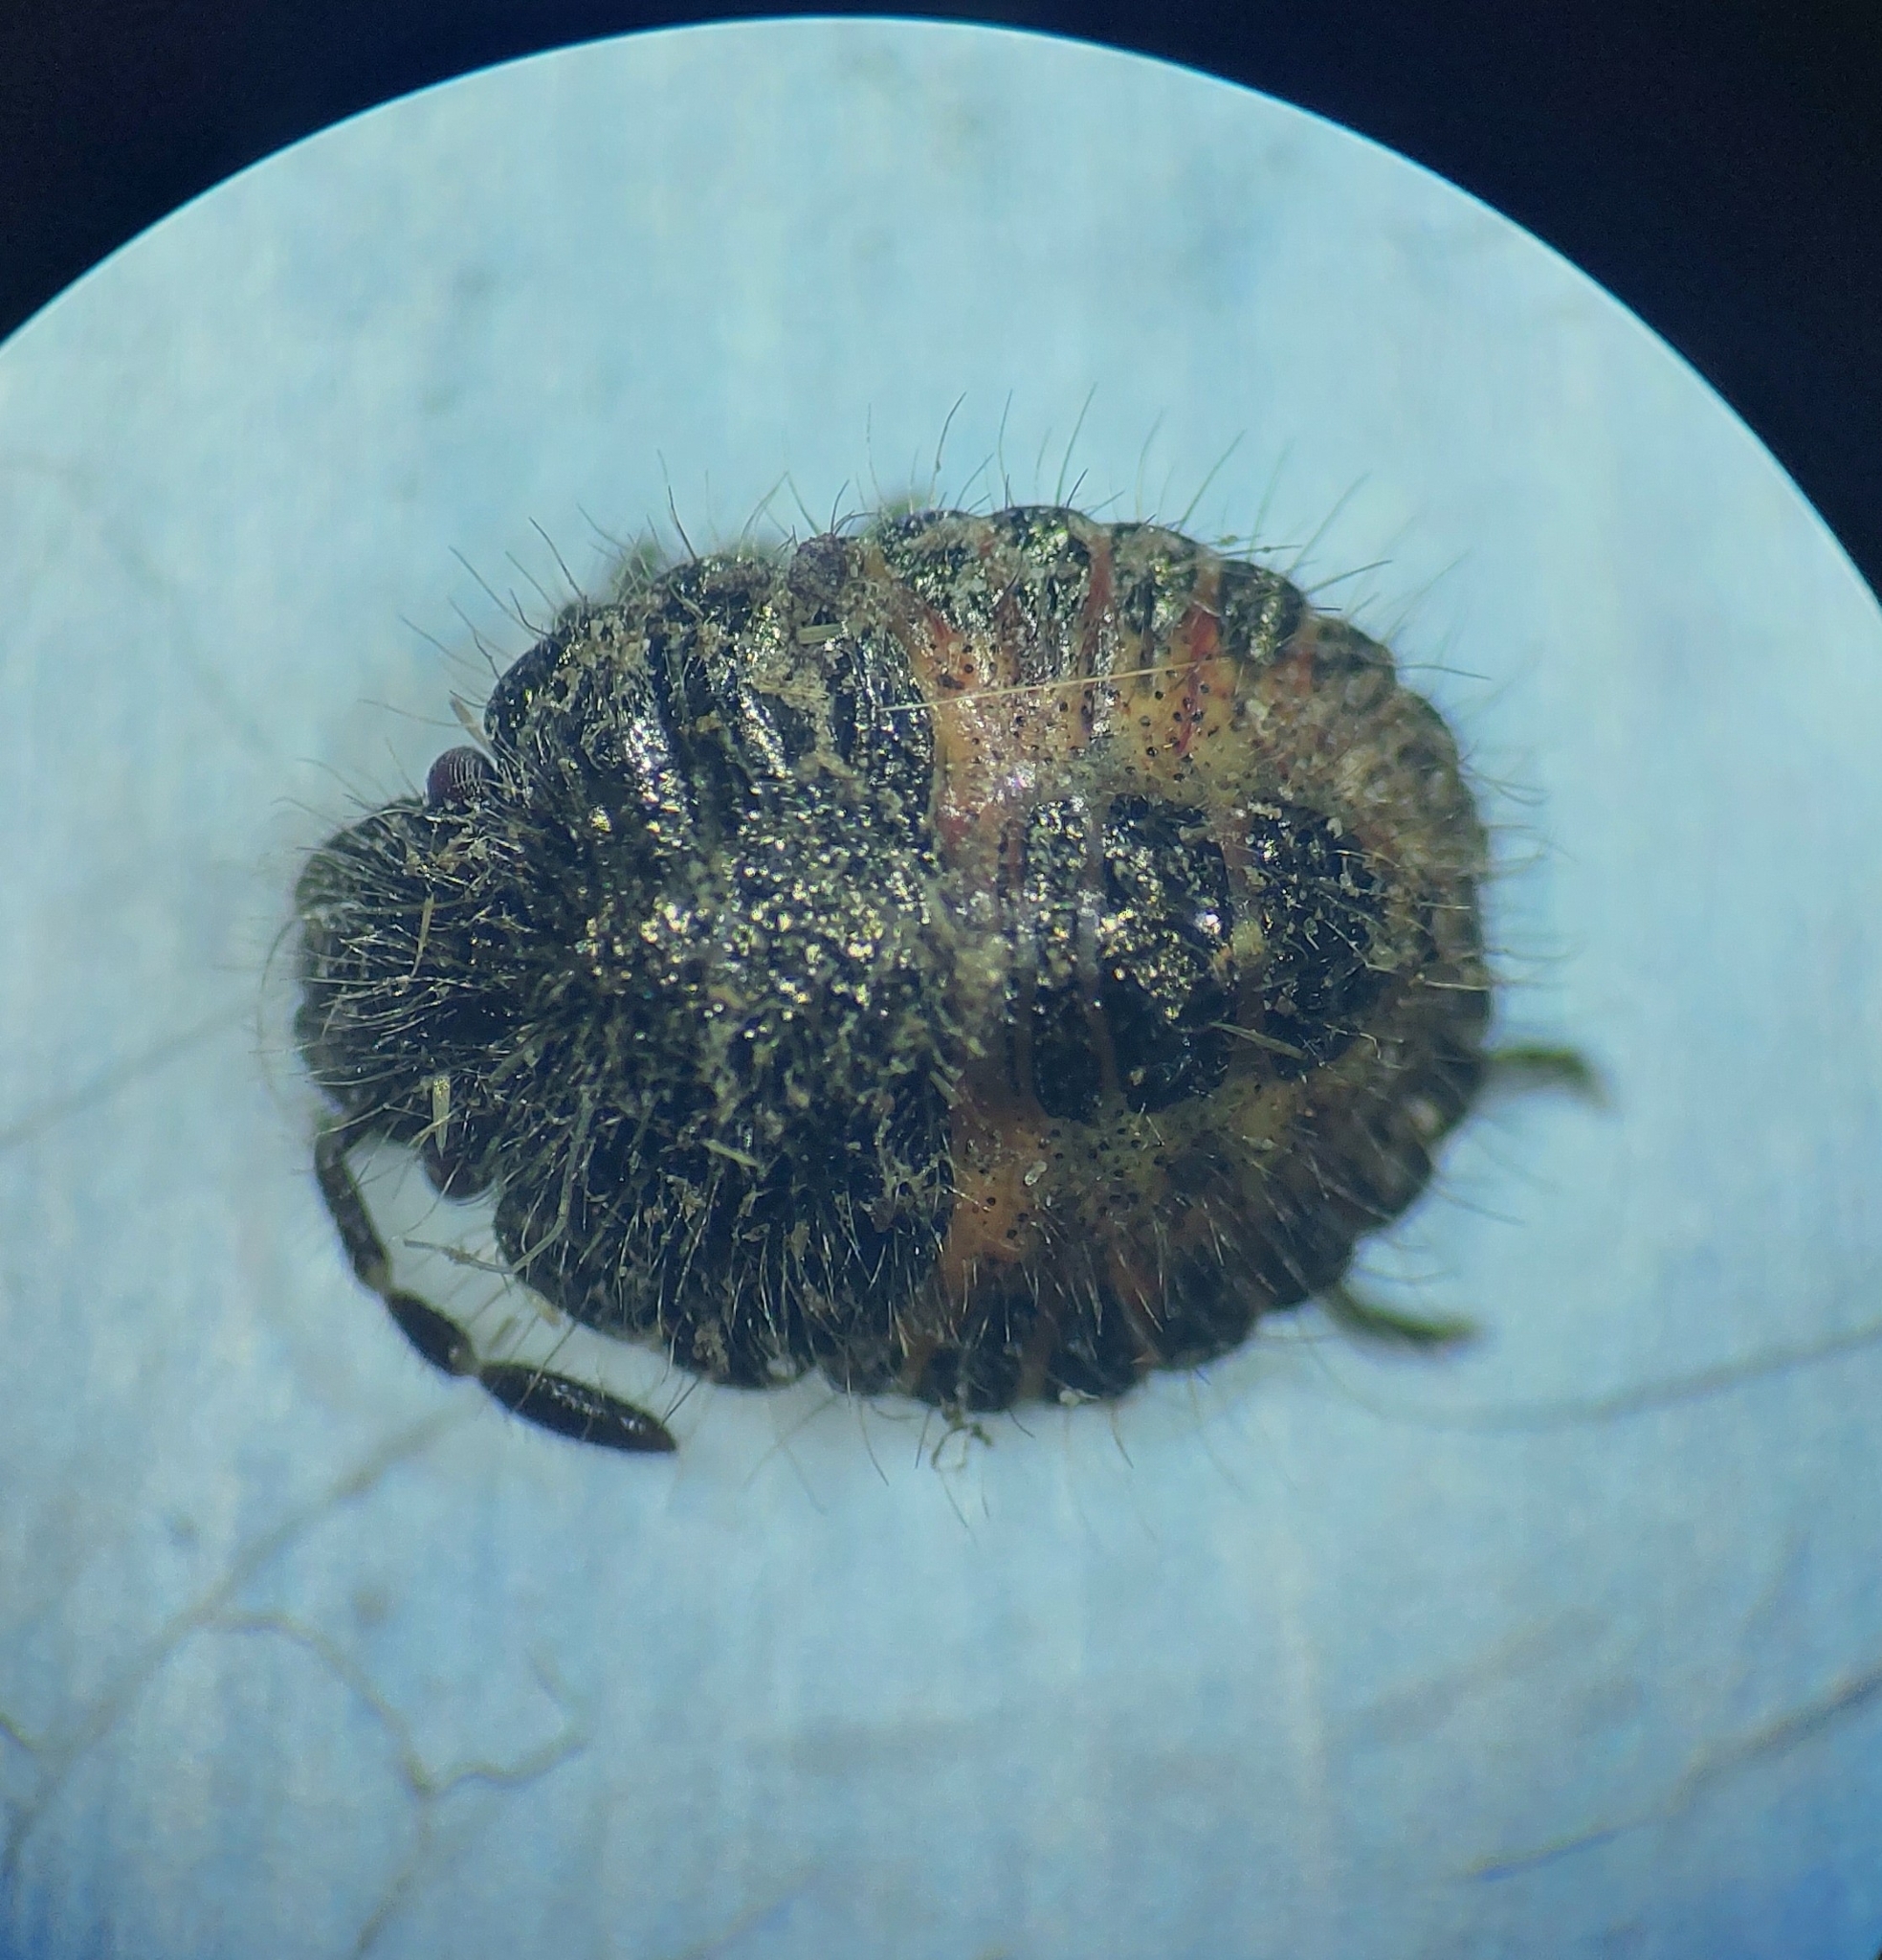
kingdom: Animalia
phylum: Arthropoda
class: Insecta
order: Hemiptera
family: Pentatomidae
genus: Dolycoris
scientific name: Dolycoris baccarum
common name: Sloe bug
